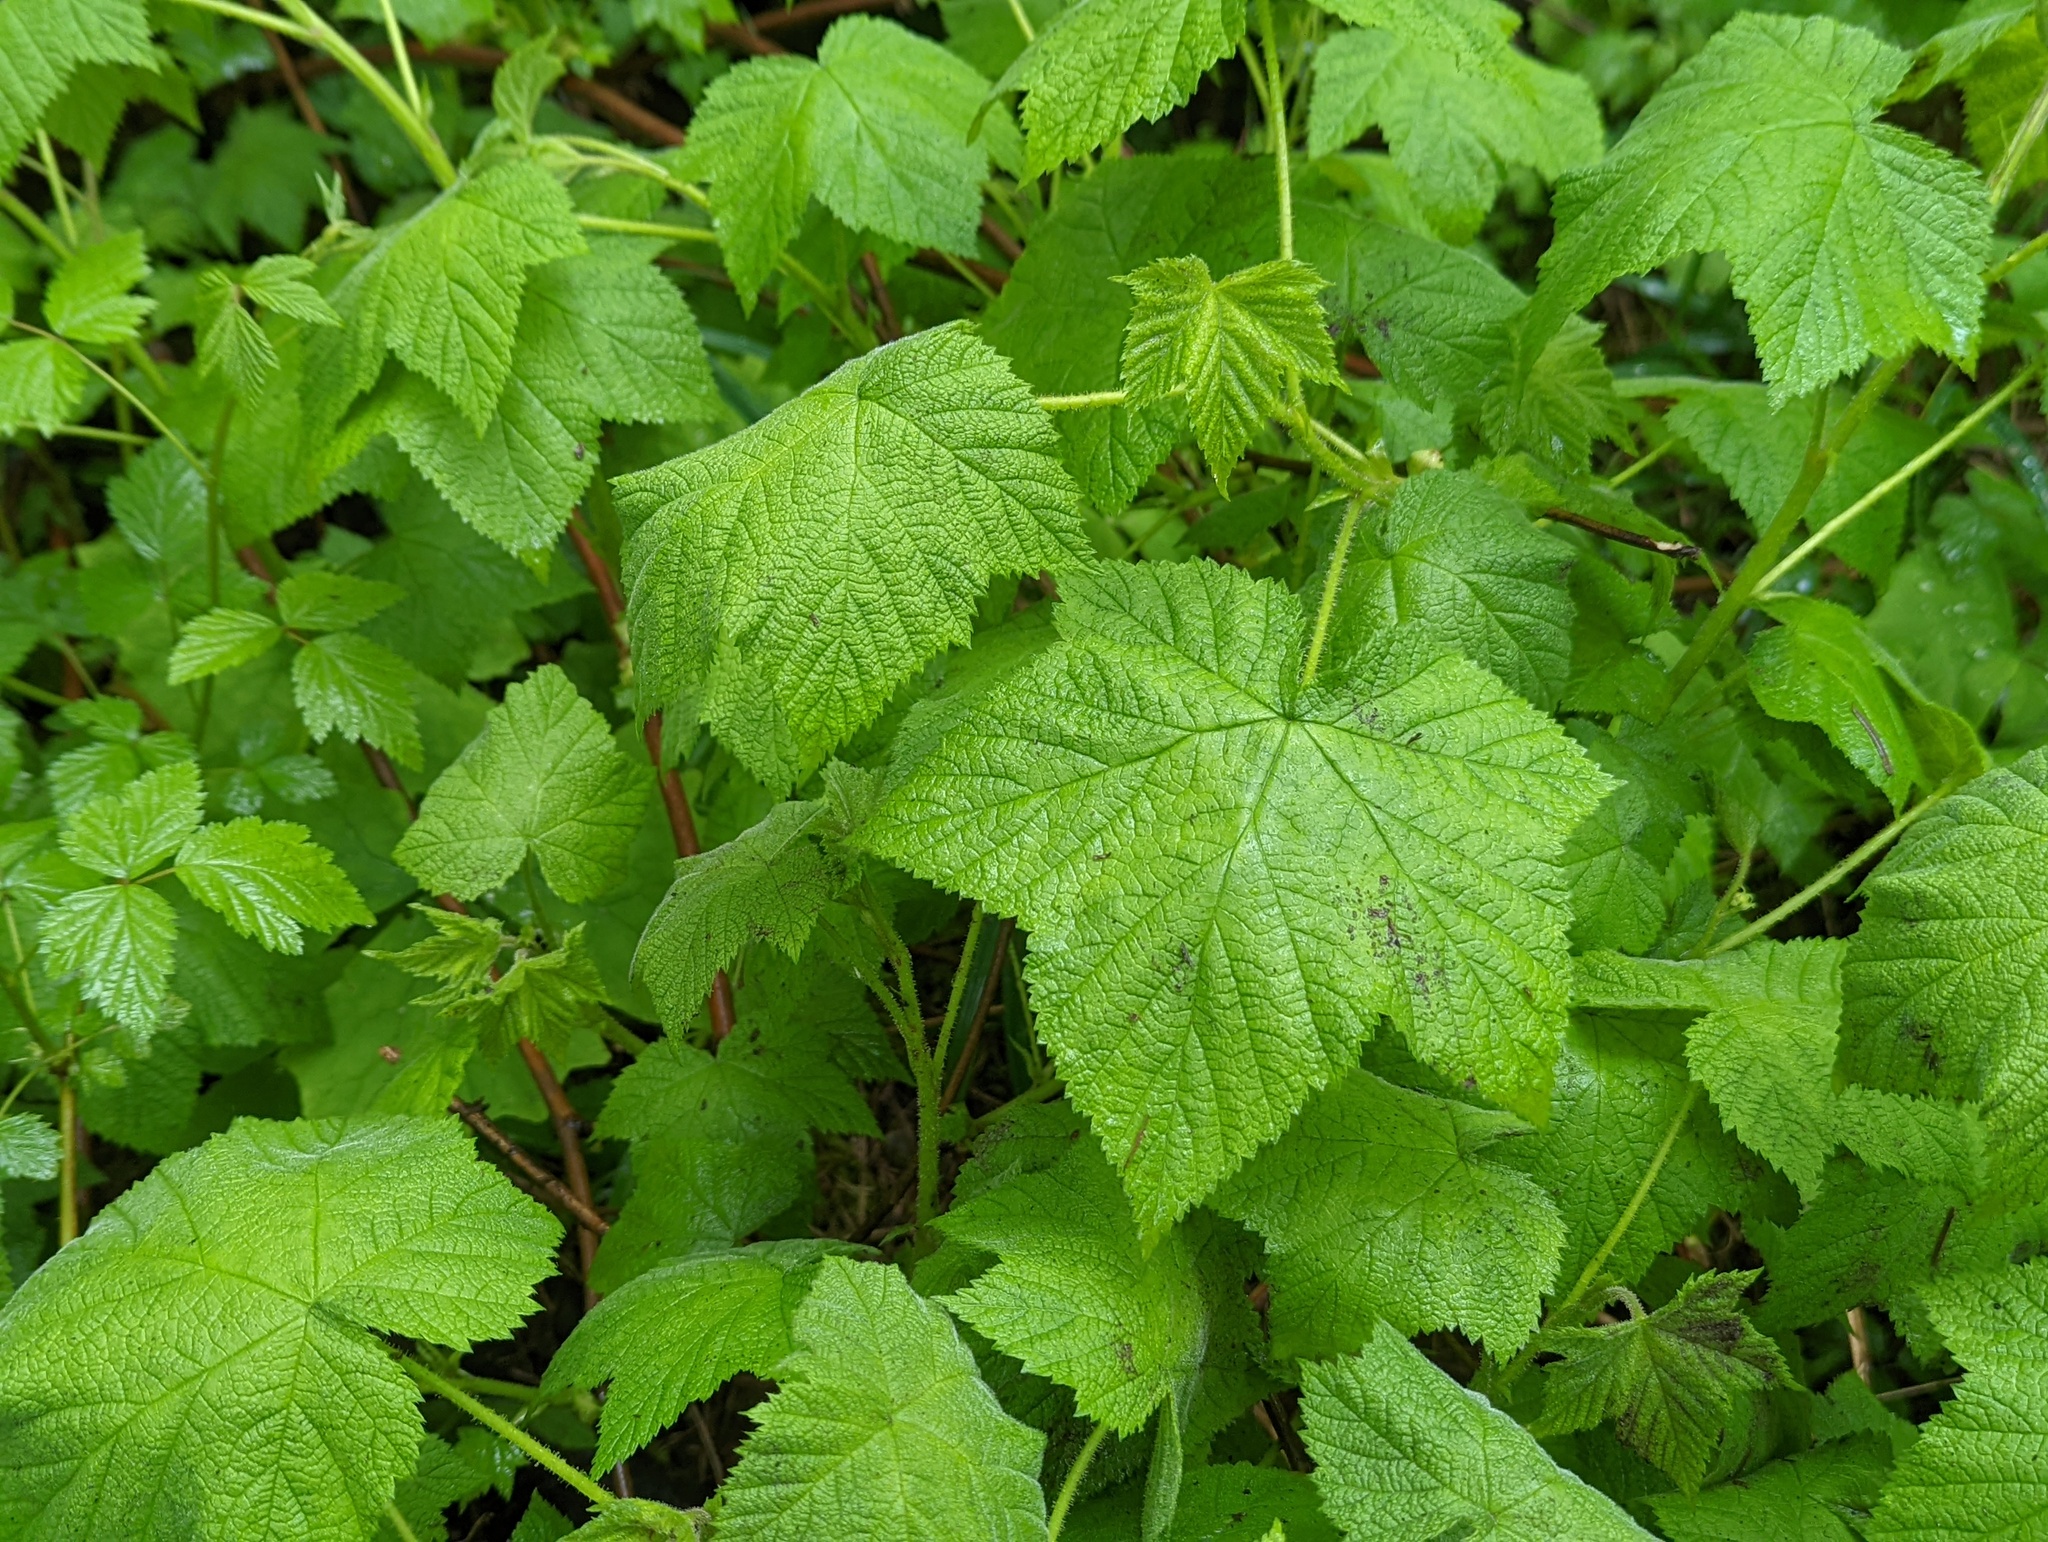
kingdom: Plantae
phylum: Tracheophyta
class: Magnoliopsida
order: Rosales
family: Rosaceae
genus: Rubus
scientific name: Rubus parviflorus
